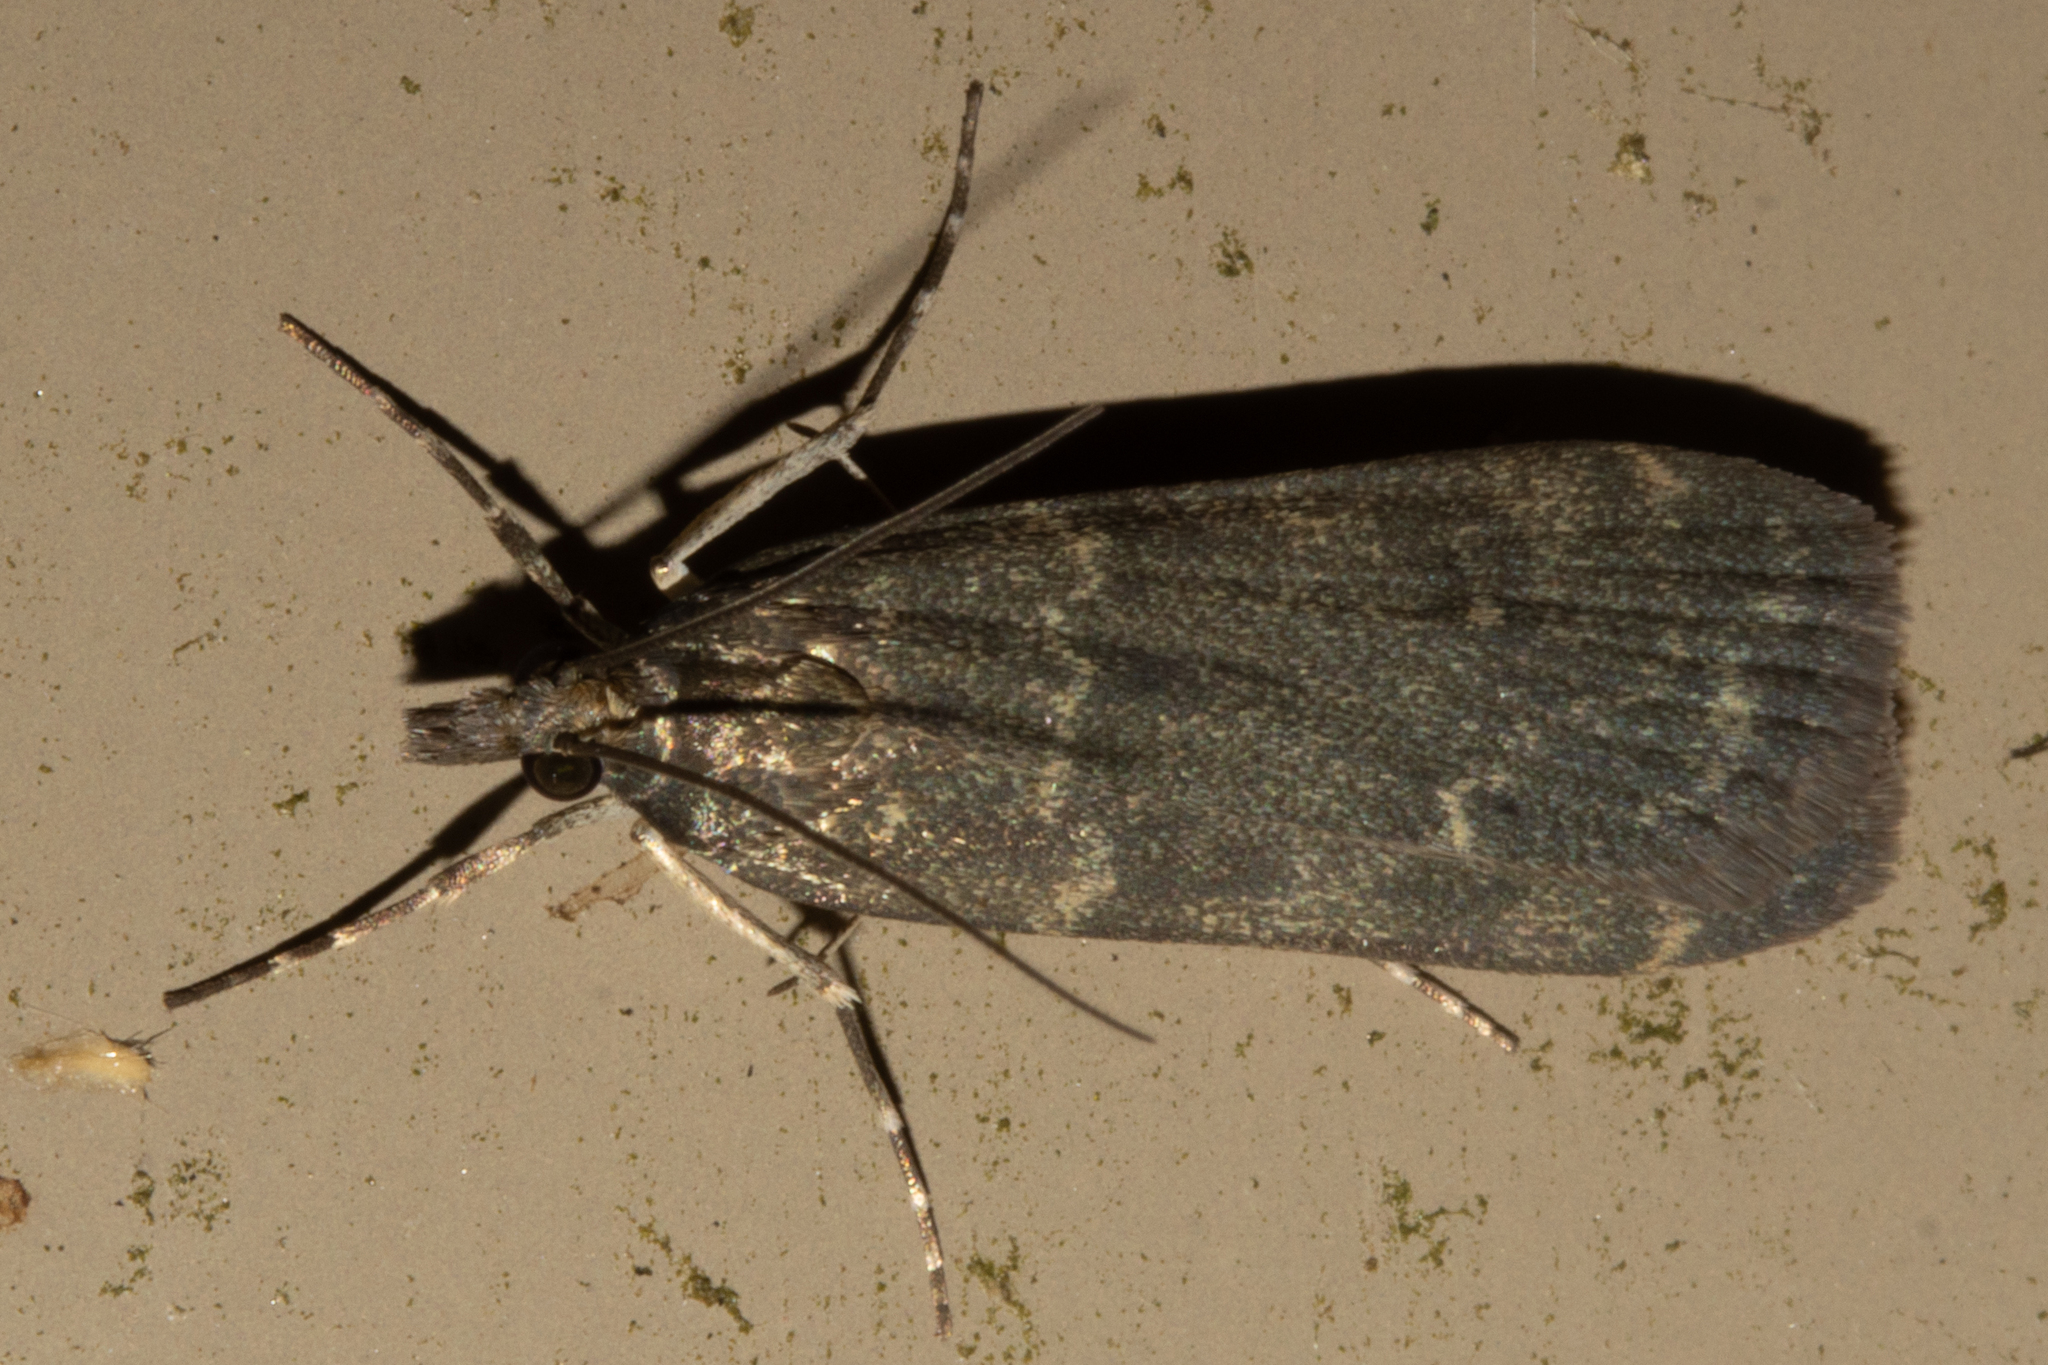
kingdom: Animalia
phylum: Arthropoda
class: Insecta
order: Lepidoptera
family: Crambidae
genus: Eudonia
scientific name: Eudonia cataxesta
